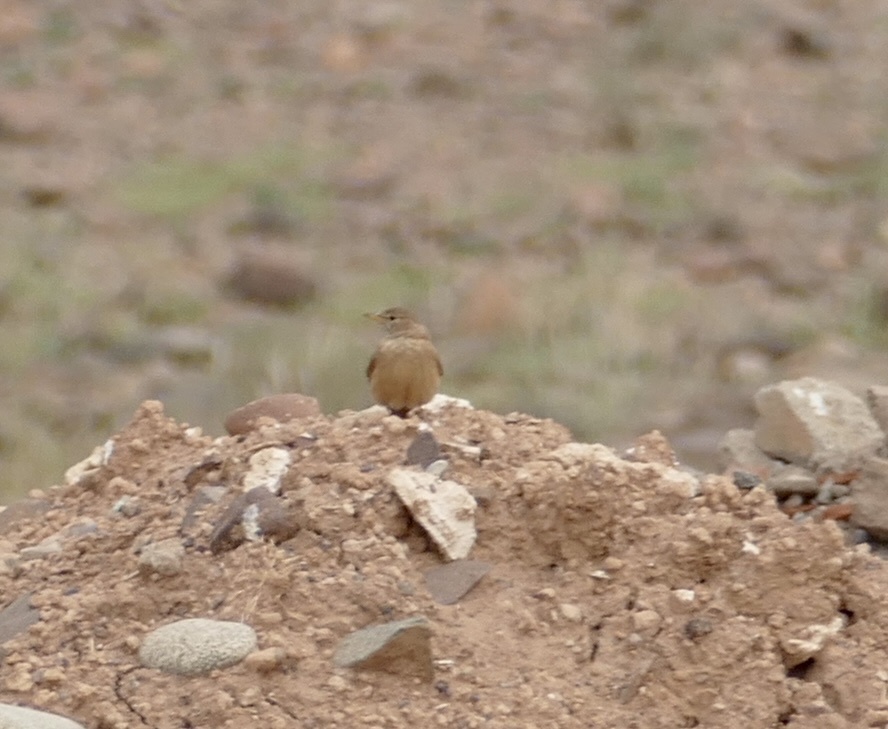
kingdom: Animalia
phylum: Chordata
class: Aves
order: Passeriformes
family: Alaudidae
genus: Ammomanes
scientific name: Ammomanes deserti
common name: Desert lark
